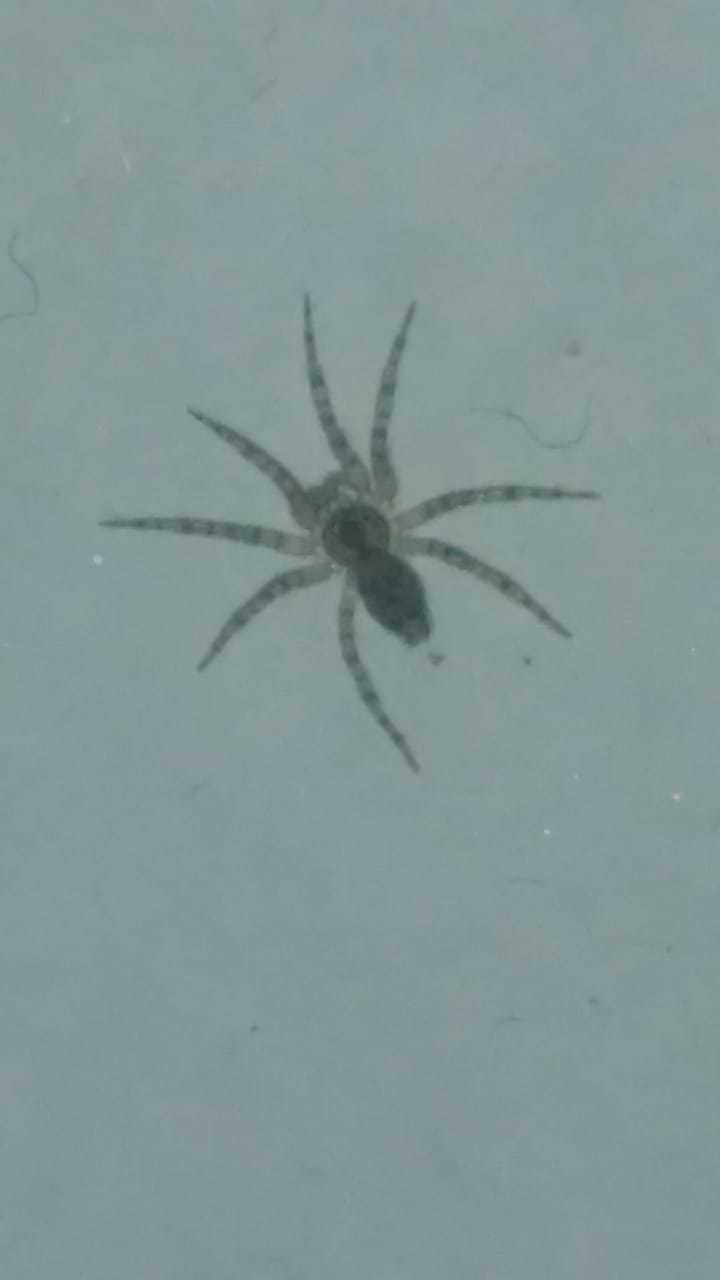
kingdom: Animalia
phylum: Arthropoda
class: Arachnida
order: Araneae
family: Oecobiidae
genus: Oecobius
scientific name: Oecobius navus
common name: Flatmesh weaver
